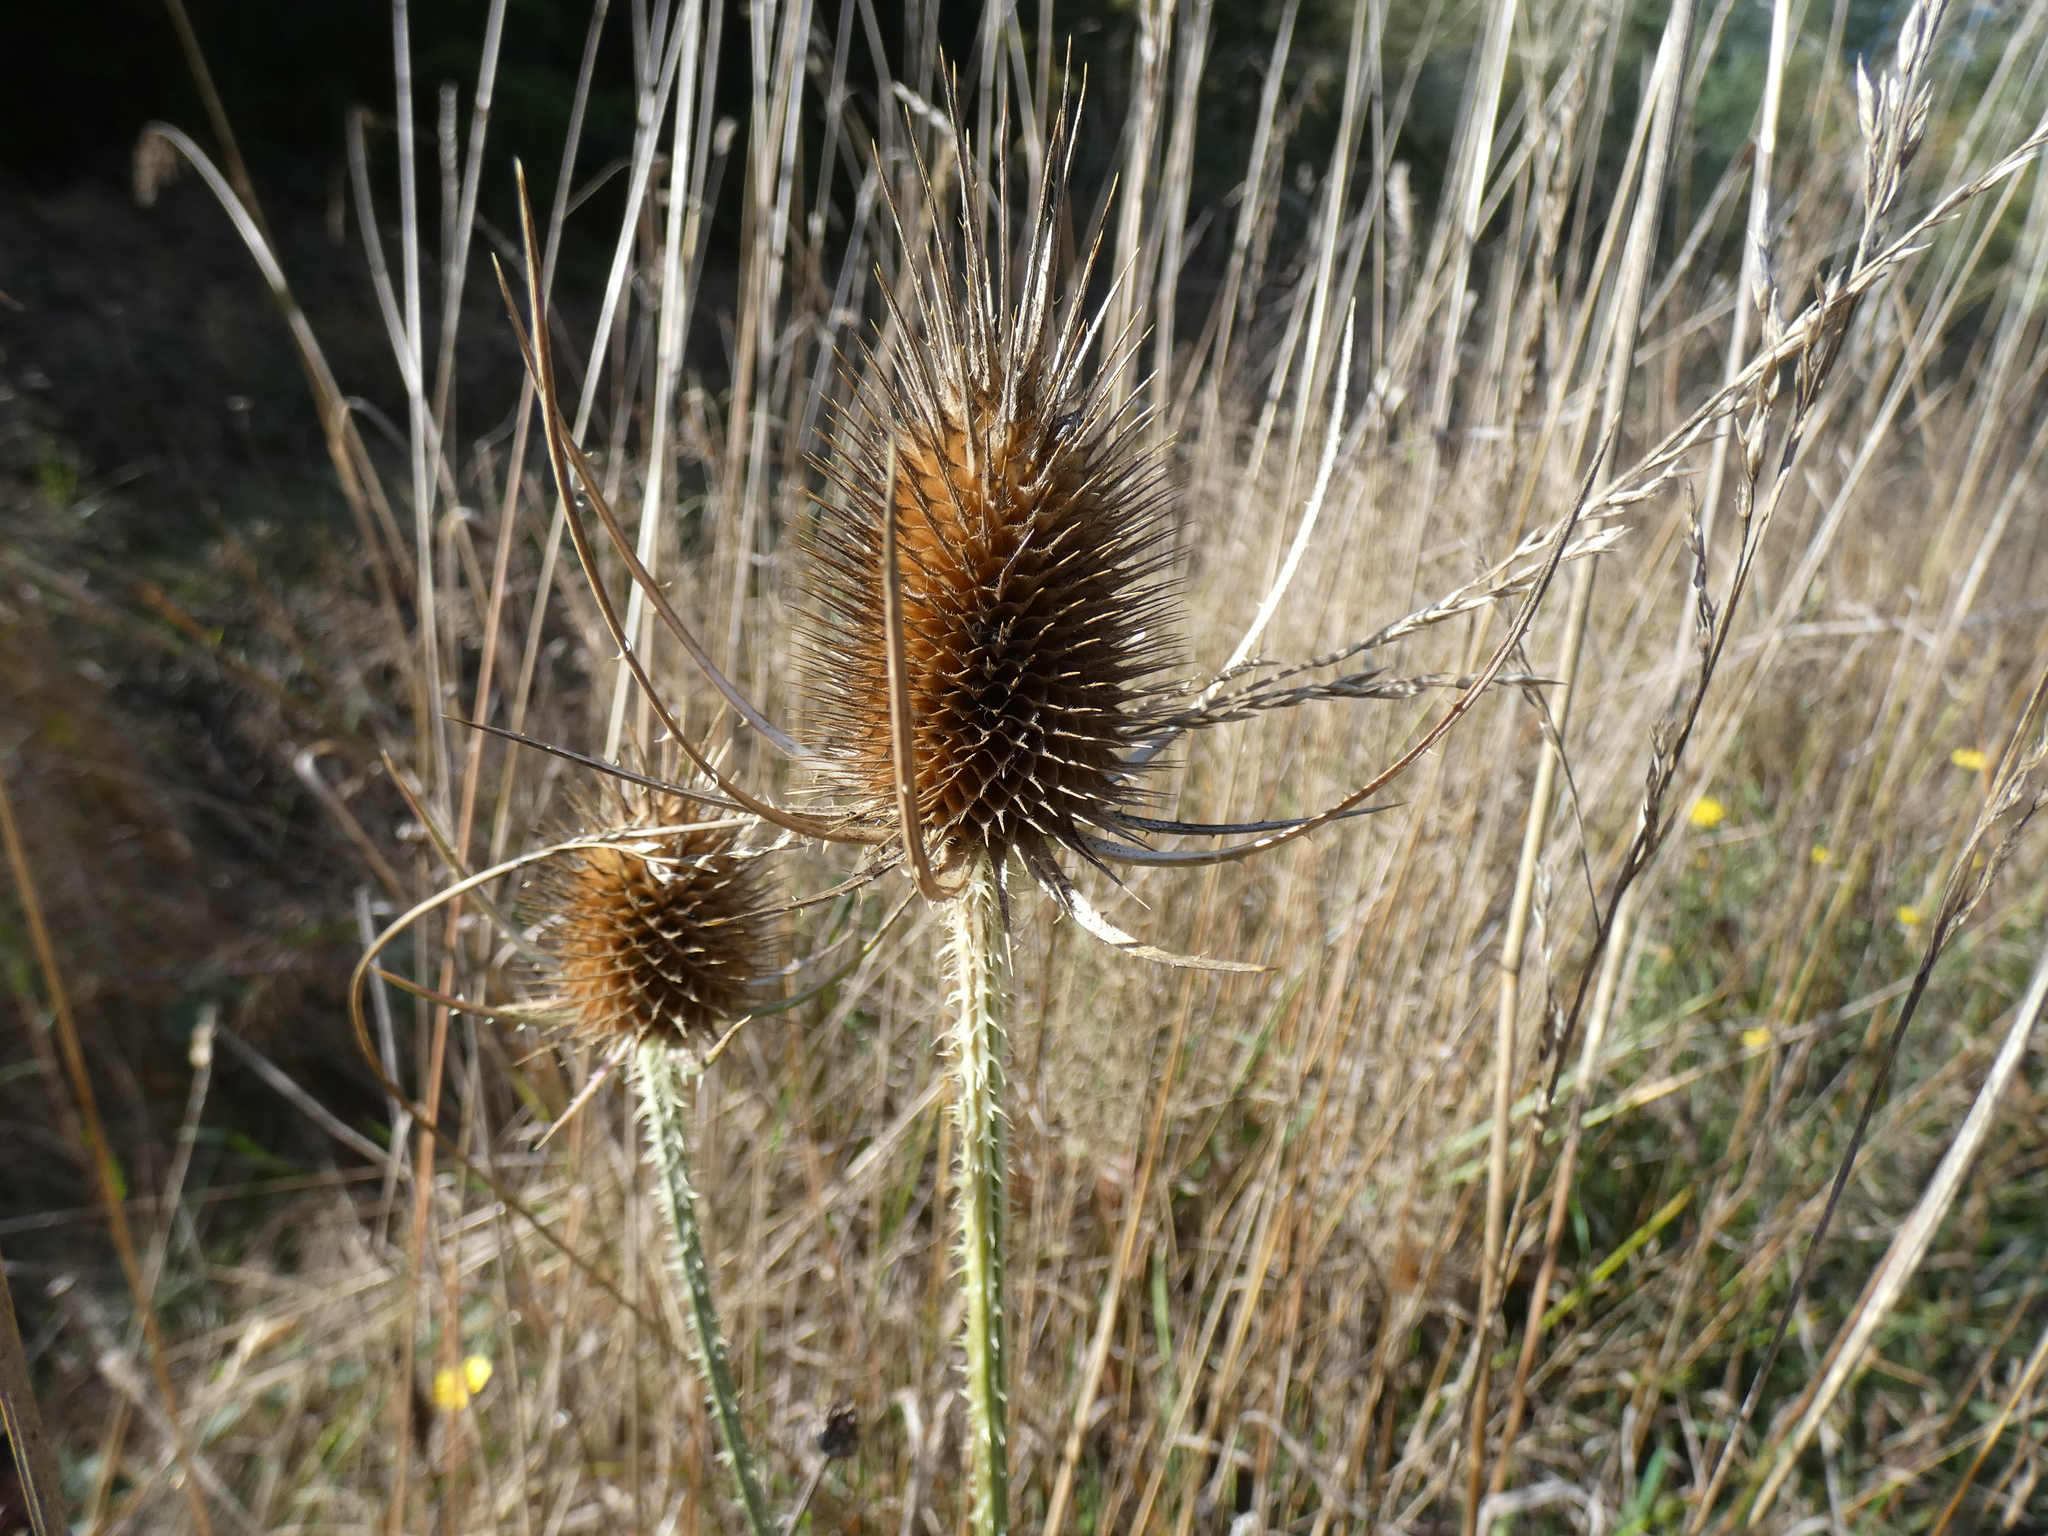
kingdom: Plantae
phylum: Tracheophyta
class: Magnoliopsida
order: Dipsacales
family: Caprifoliaceae
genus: Dipsacus
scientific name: Dipsacus fullonum
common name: Teasel
